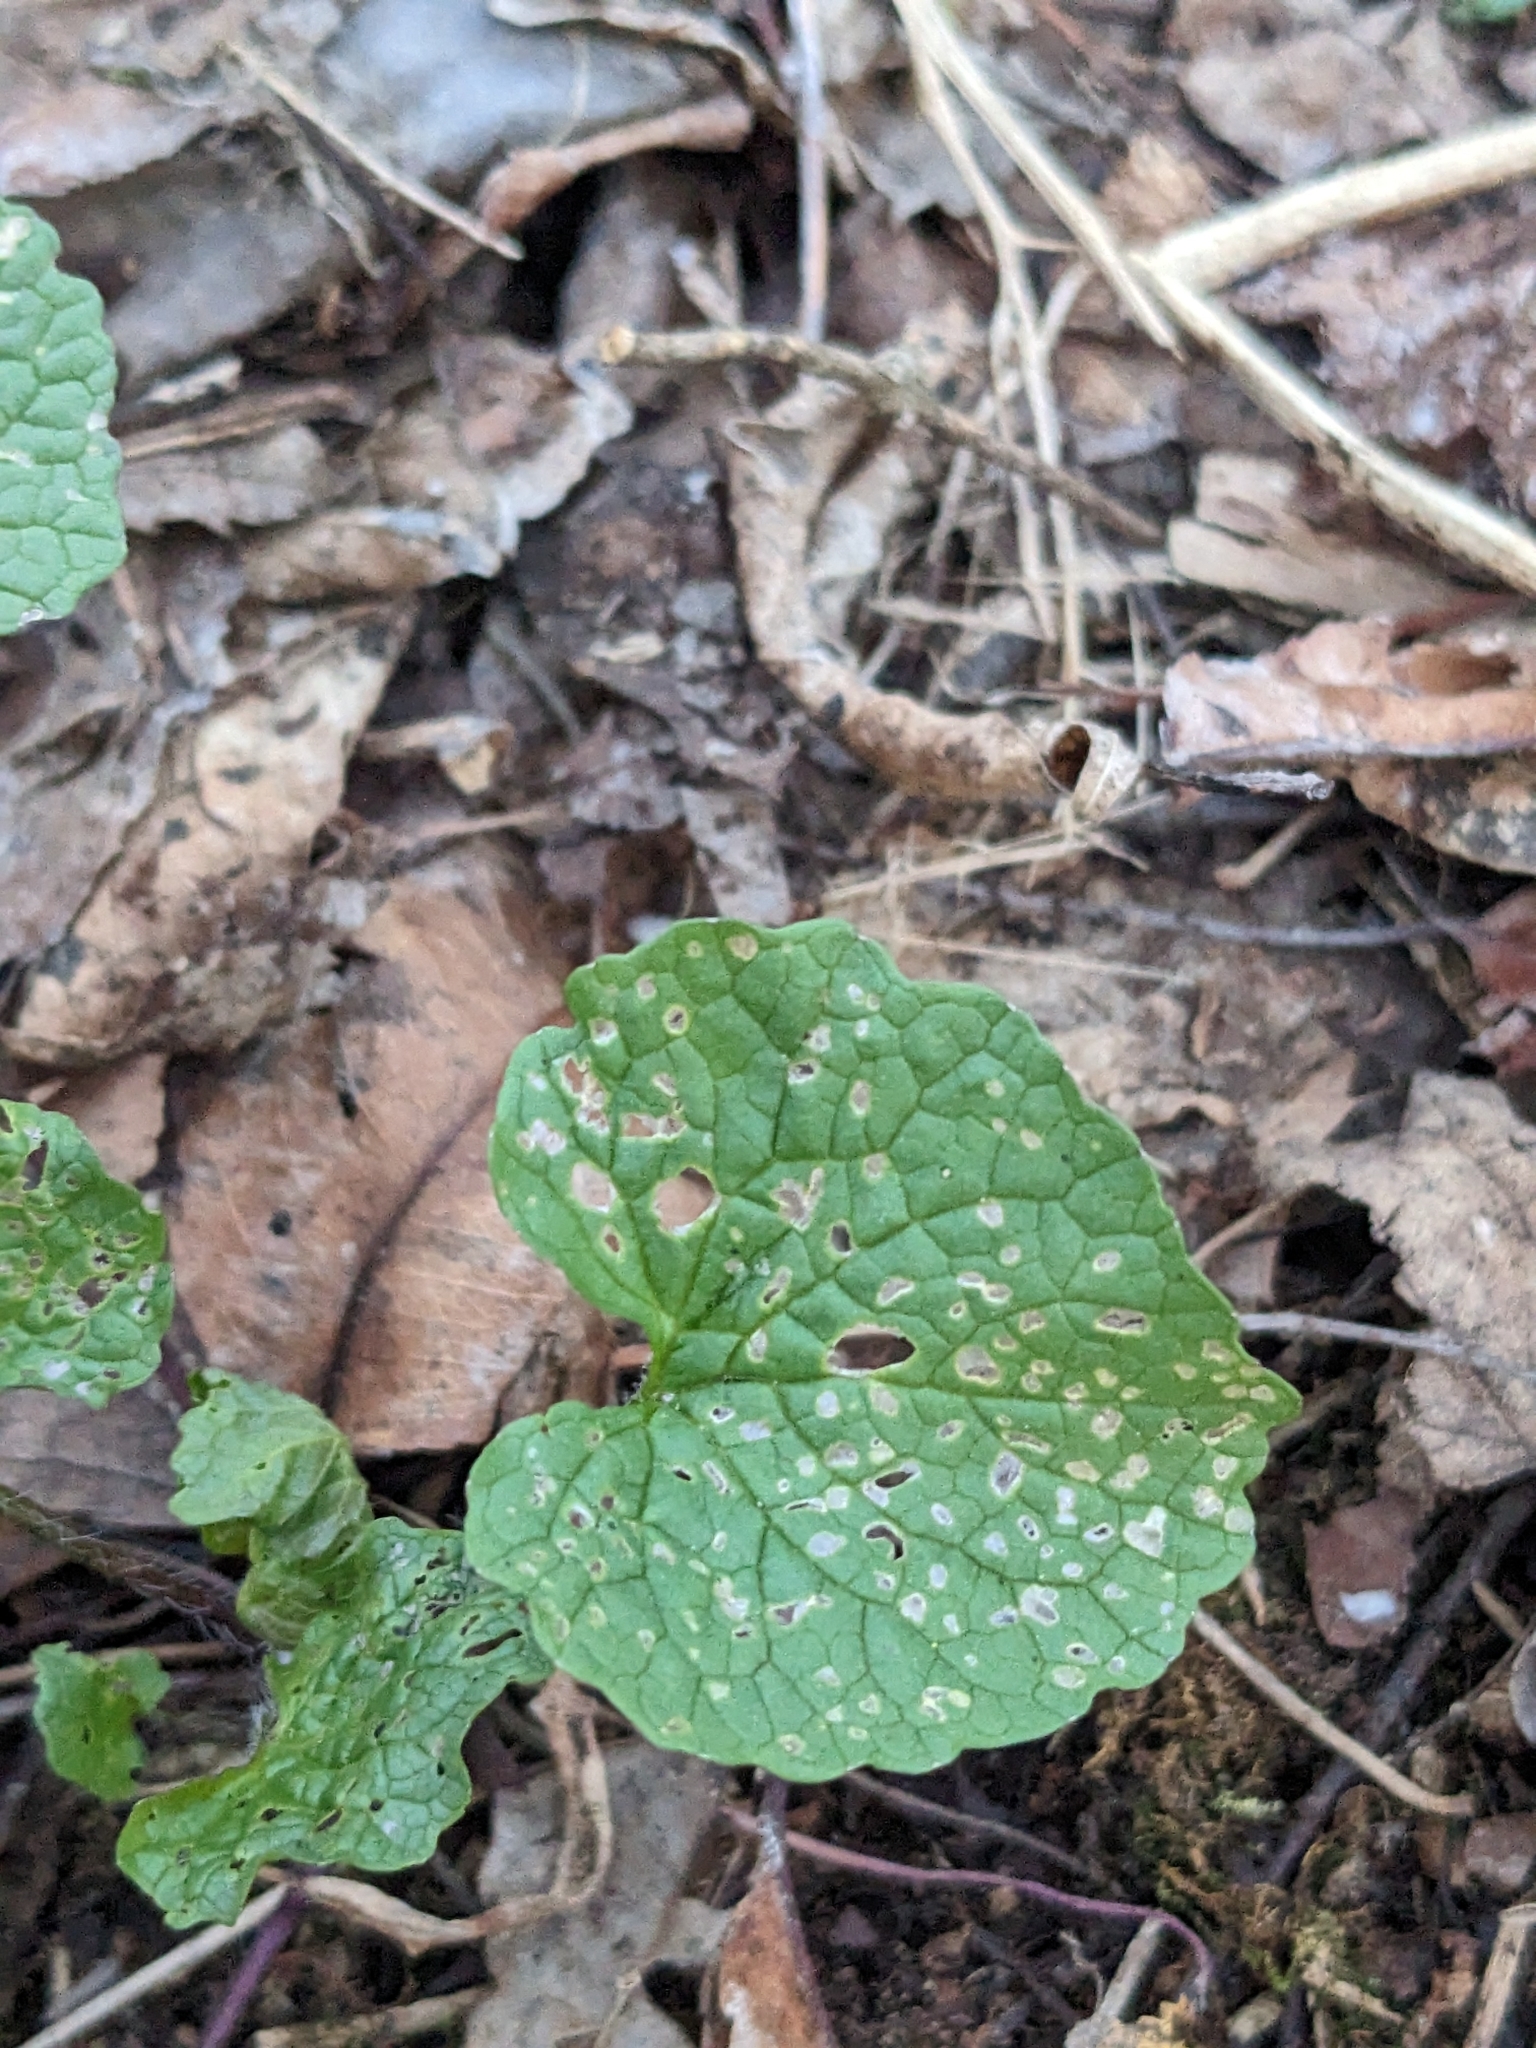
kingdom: Plantae
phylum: Tracheophyta
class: Magnoliopsida
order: Brassicales
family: Brassicaceae
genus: Alliaria
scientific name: Alliaria petiolata
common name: Garlic mustard
